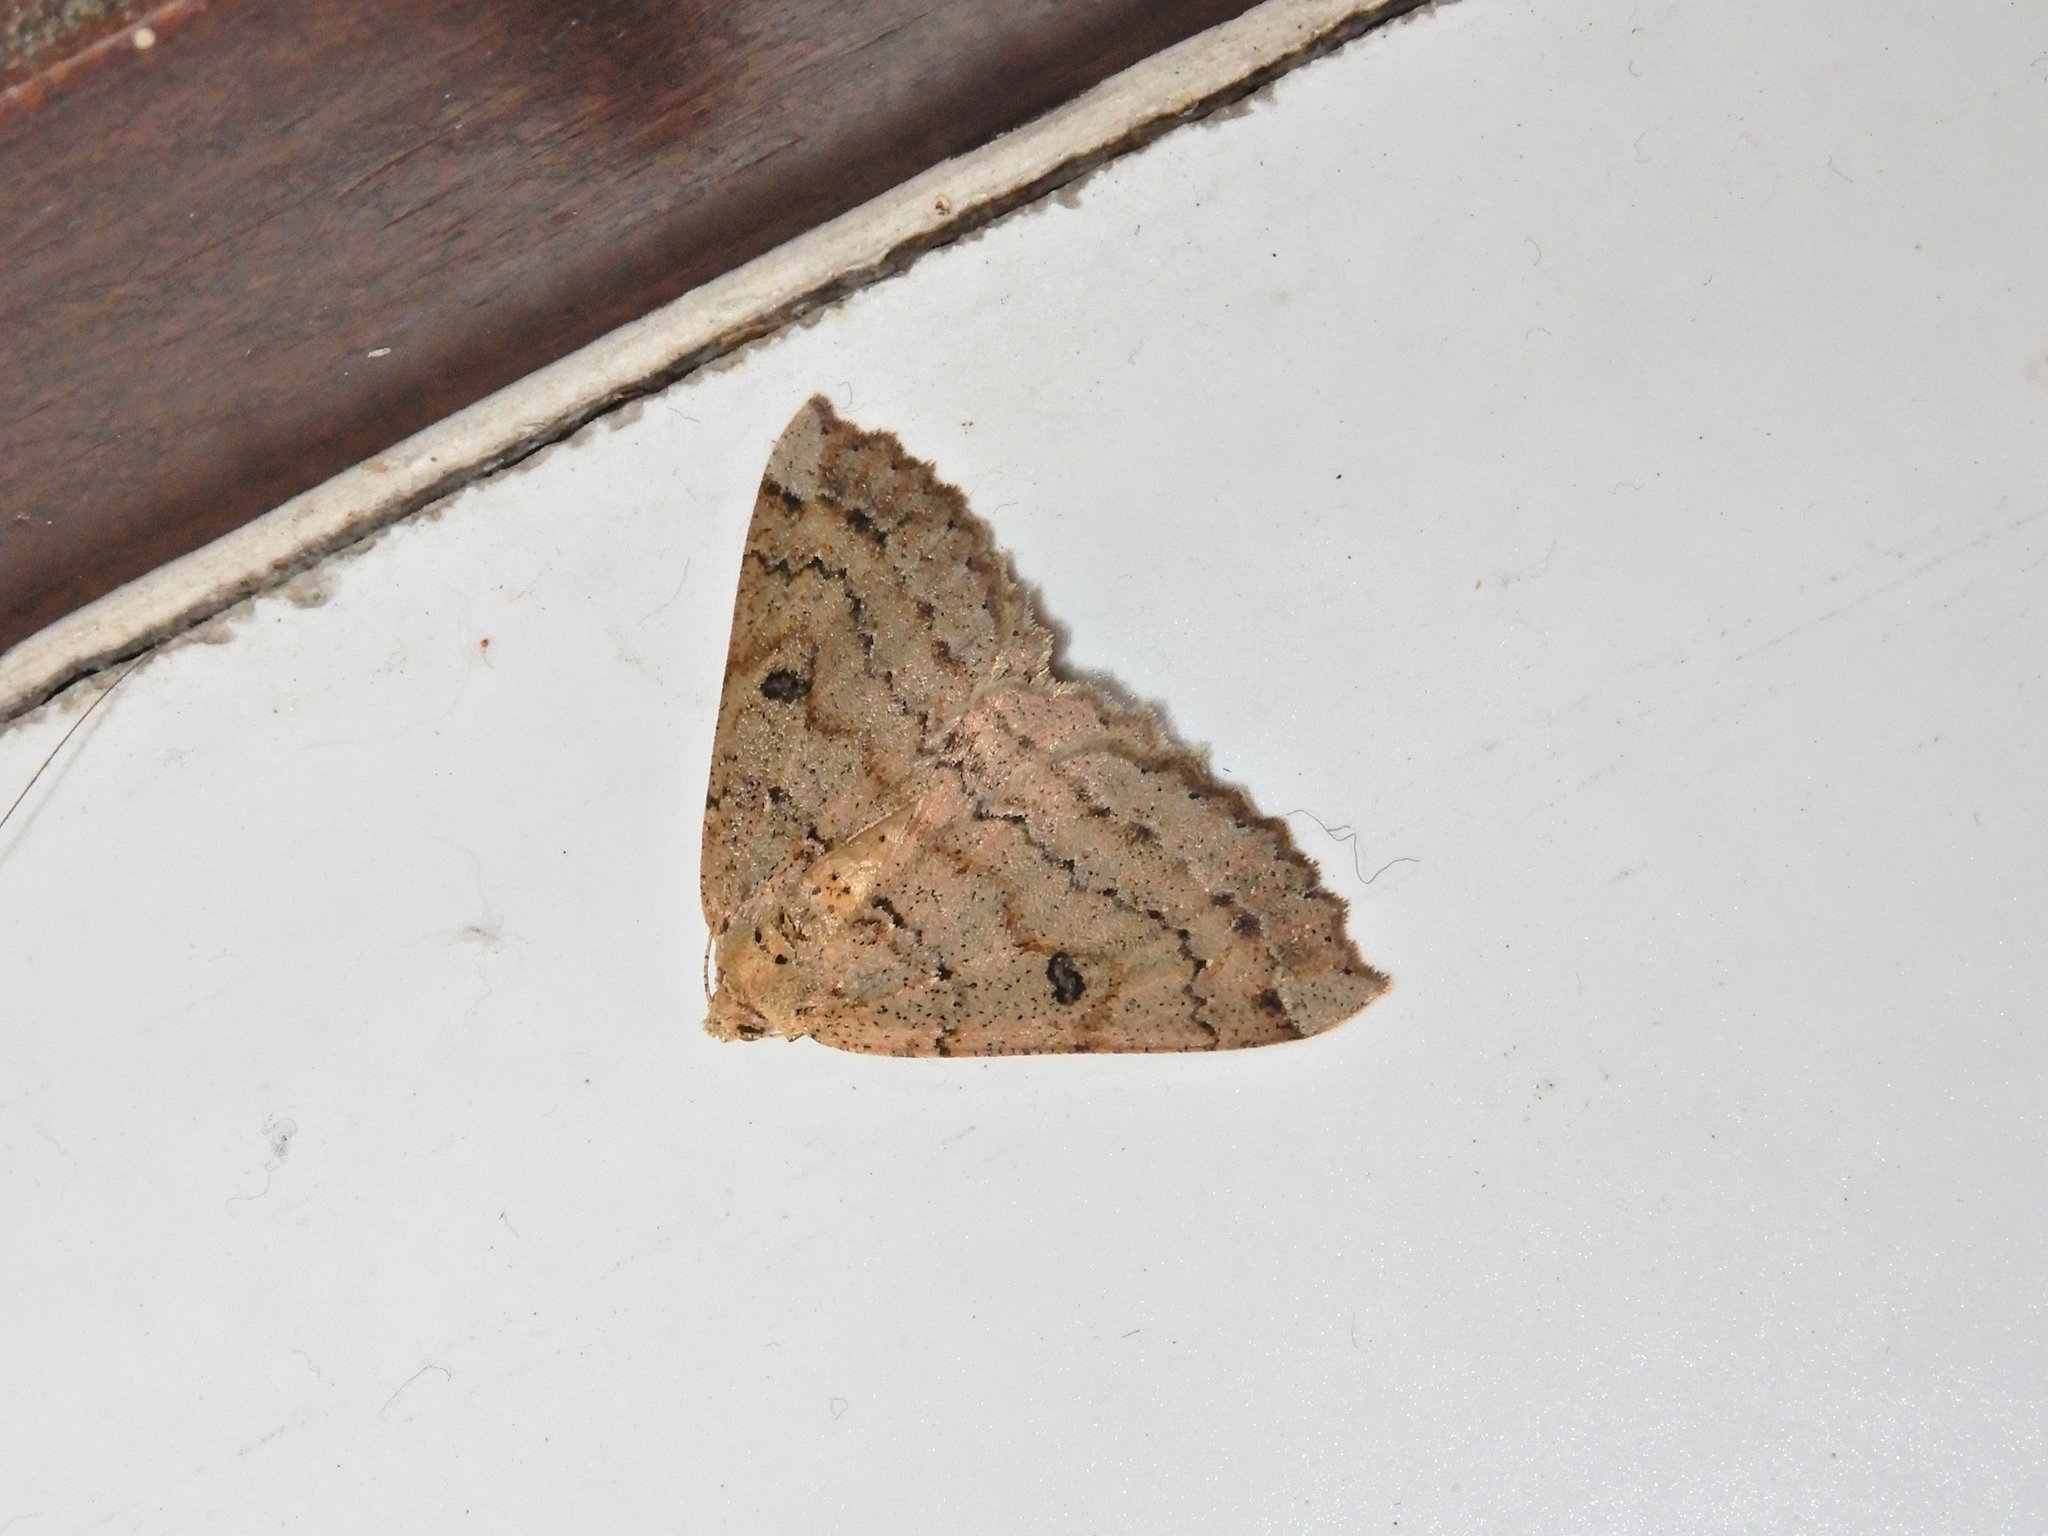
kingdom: Animalia
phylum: Arthropoda
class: Insecta
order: Lepidoptera
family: Geometridae
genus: Cleora
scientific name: Cleora scriptaria
